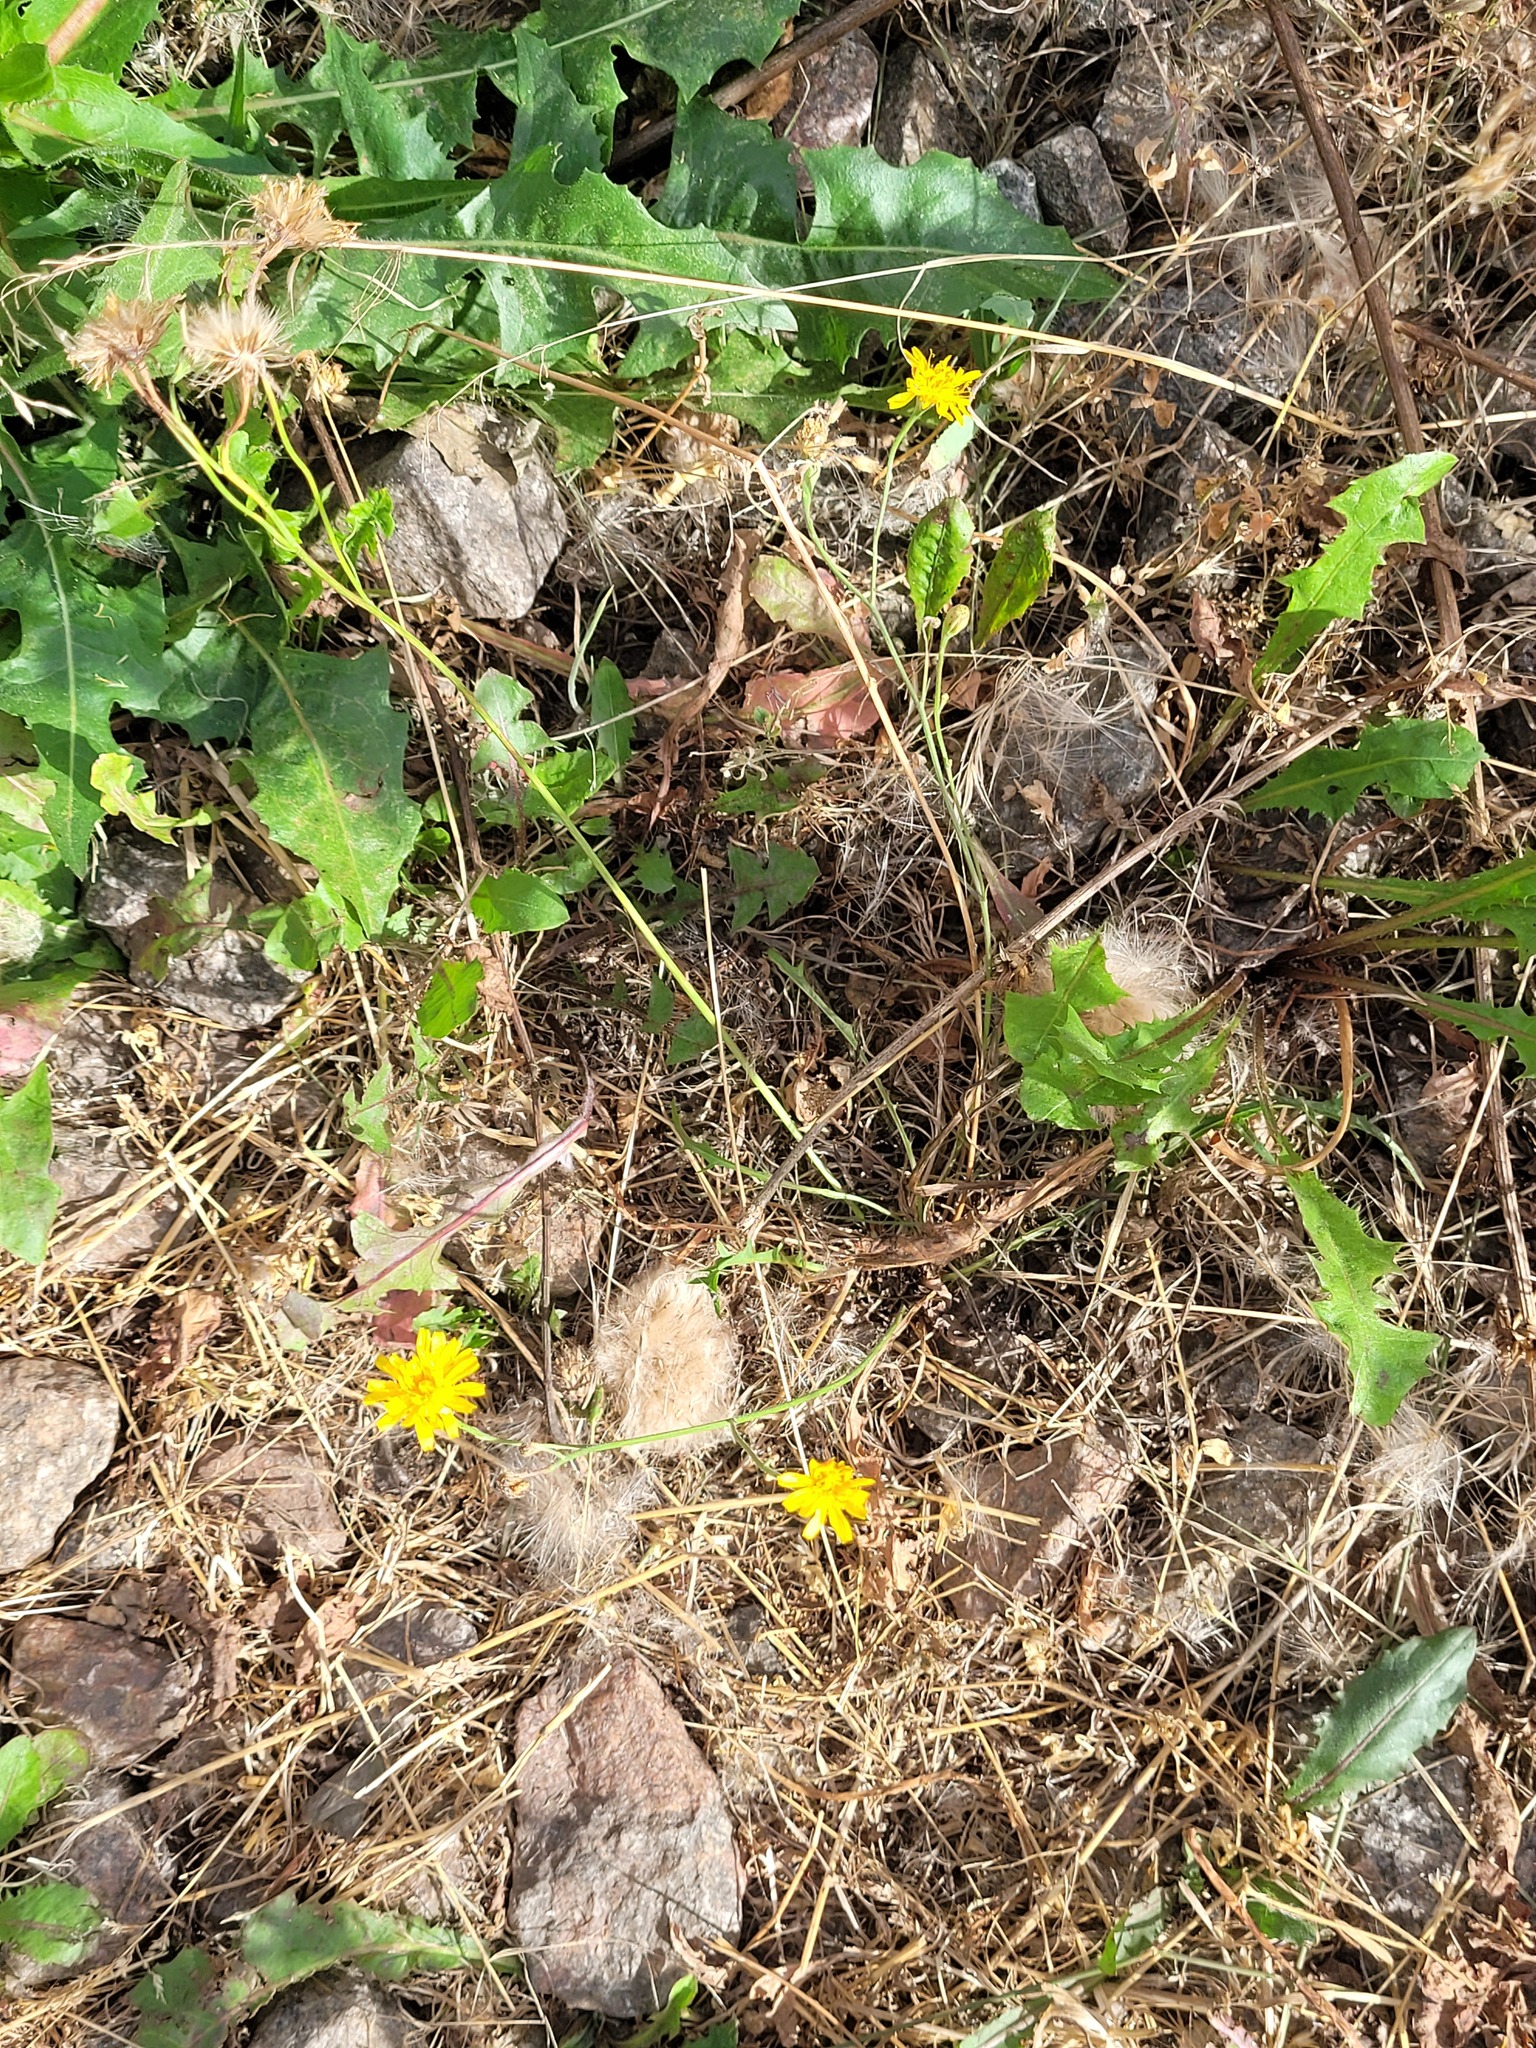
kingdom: Plantae
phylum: Tracheophyta
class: Magnoliopsida
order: Asterales
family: Asteraceae
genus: Scorzoneroides
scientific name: Scorzoneroides autumnalis
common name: Autumn hawkbit
